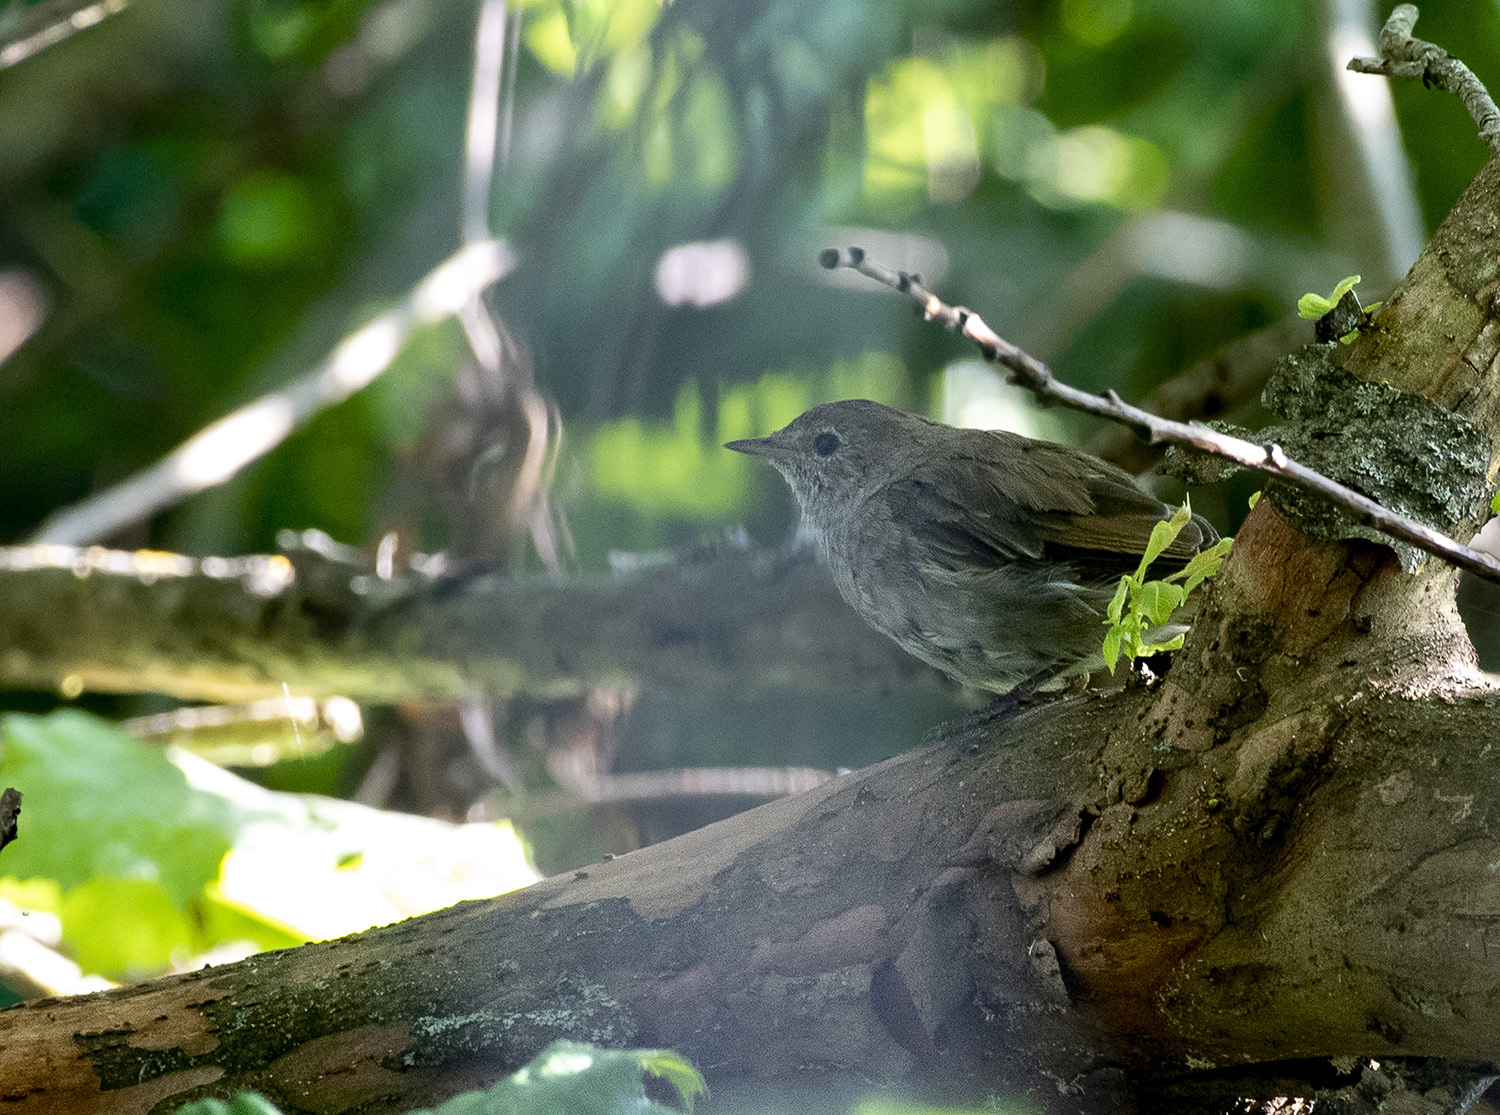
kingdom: Animalia
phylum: Chordata
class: Aves
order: Passeriformes
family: Muscicapidae
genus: Luscinia
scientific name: Luscinia luscinia
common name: Thrush nightingale
